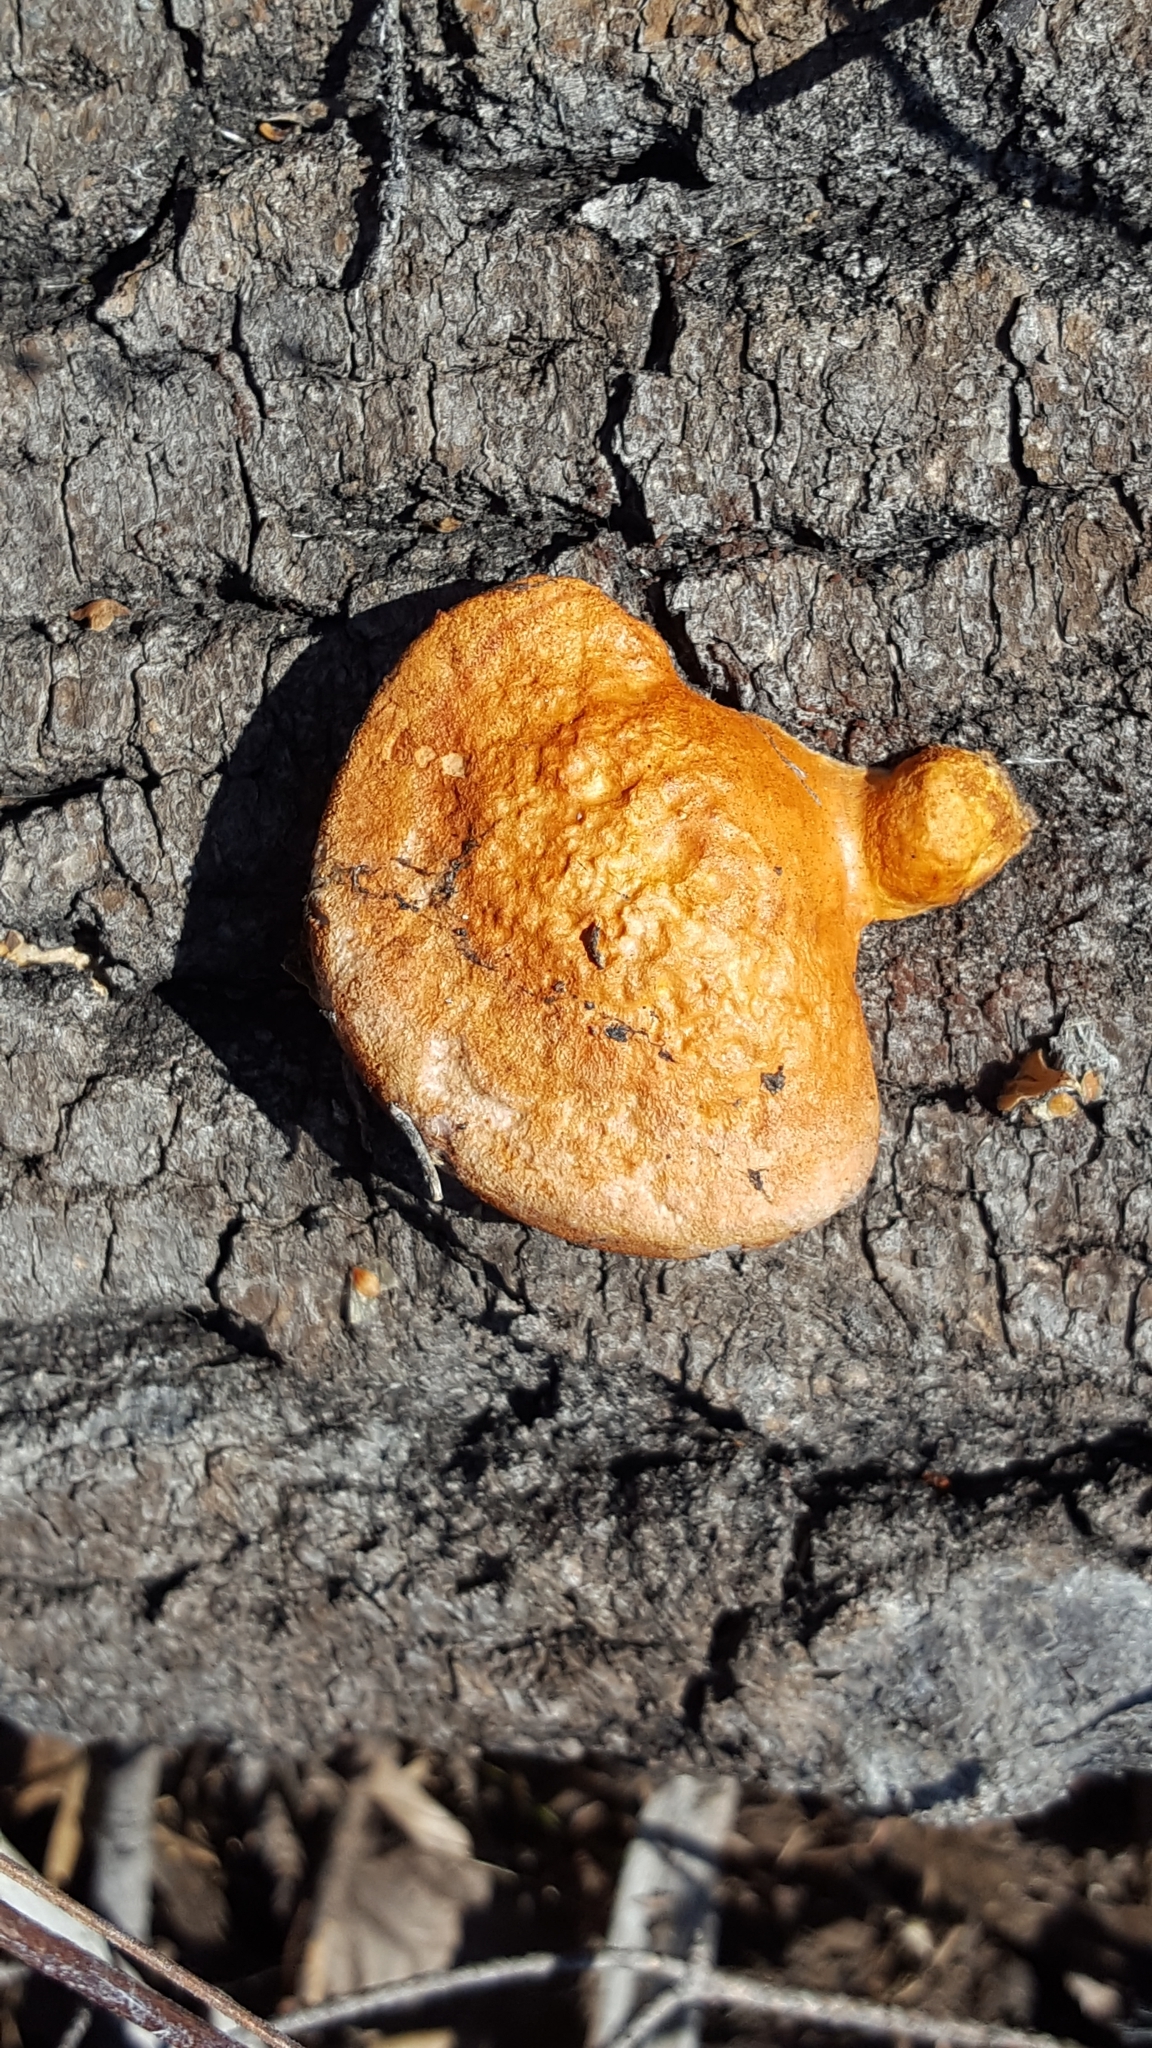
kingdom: Fungi
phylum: Basidiomycota
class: Agaricomycetes
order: Polyporales
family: Polyporaceae
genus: Trametes
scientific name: Trametes cinnabarina
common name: Northern cinnabar polypore
